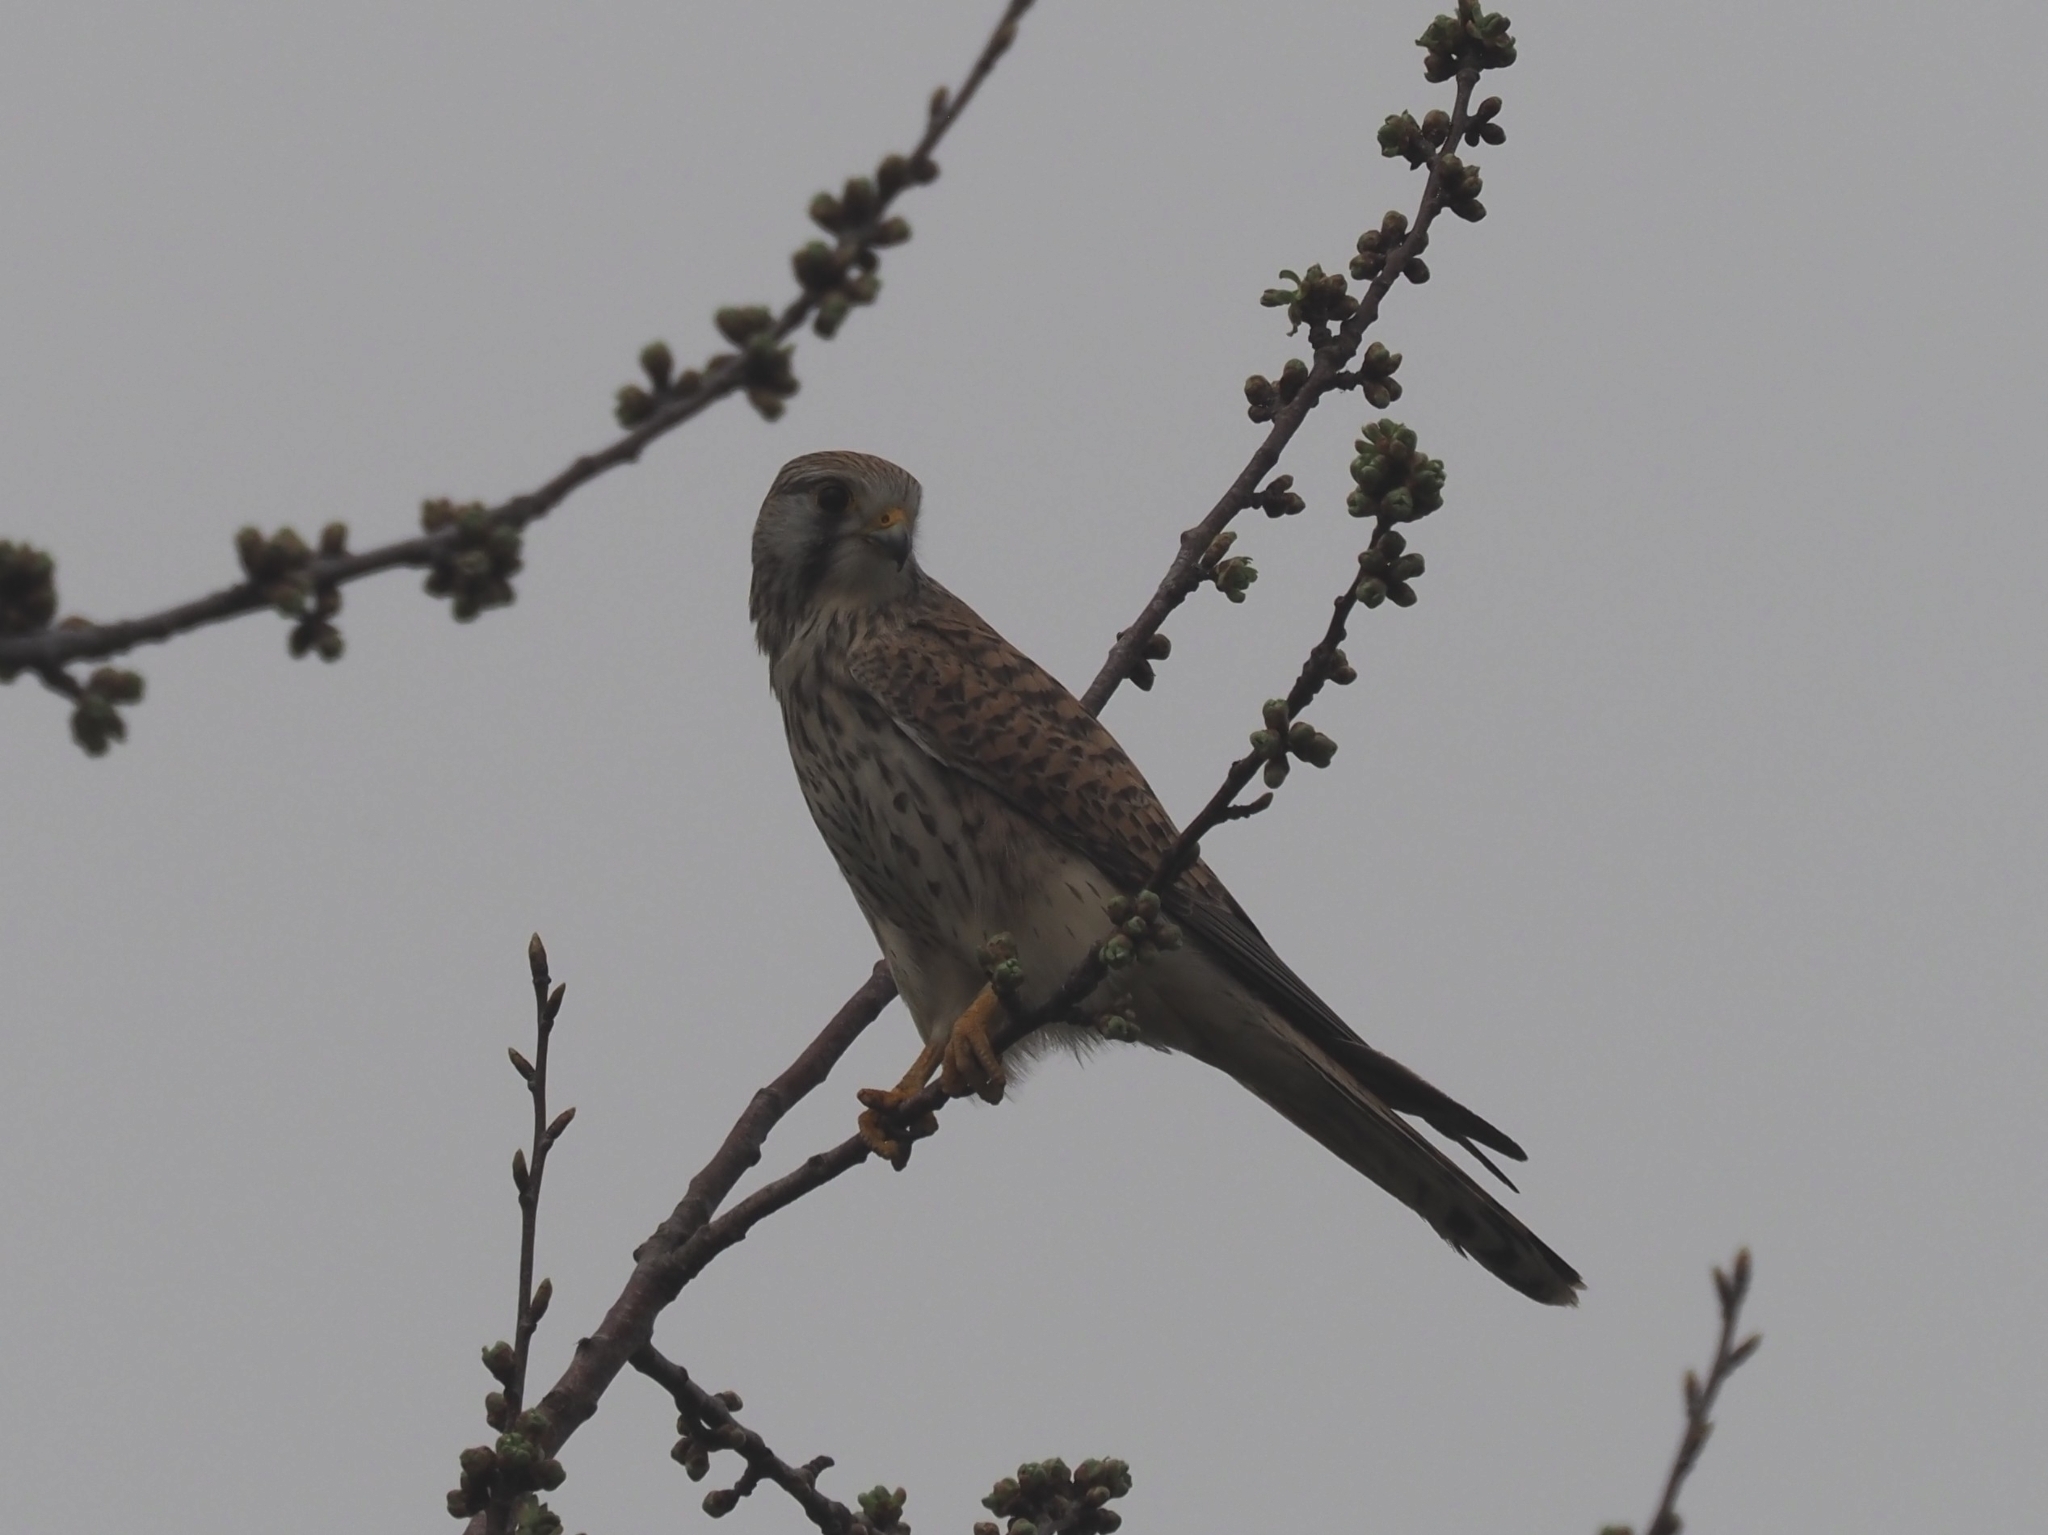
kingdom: Animalia
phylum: Chordata
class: Aves
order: Falconiformes
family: Falconidae
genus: Falco
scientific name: Falco tinnunculus
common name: Common kestrel
